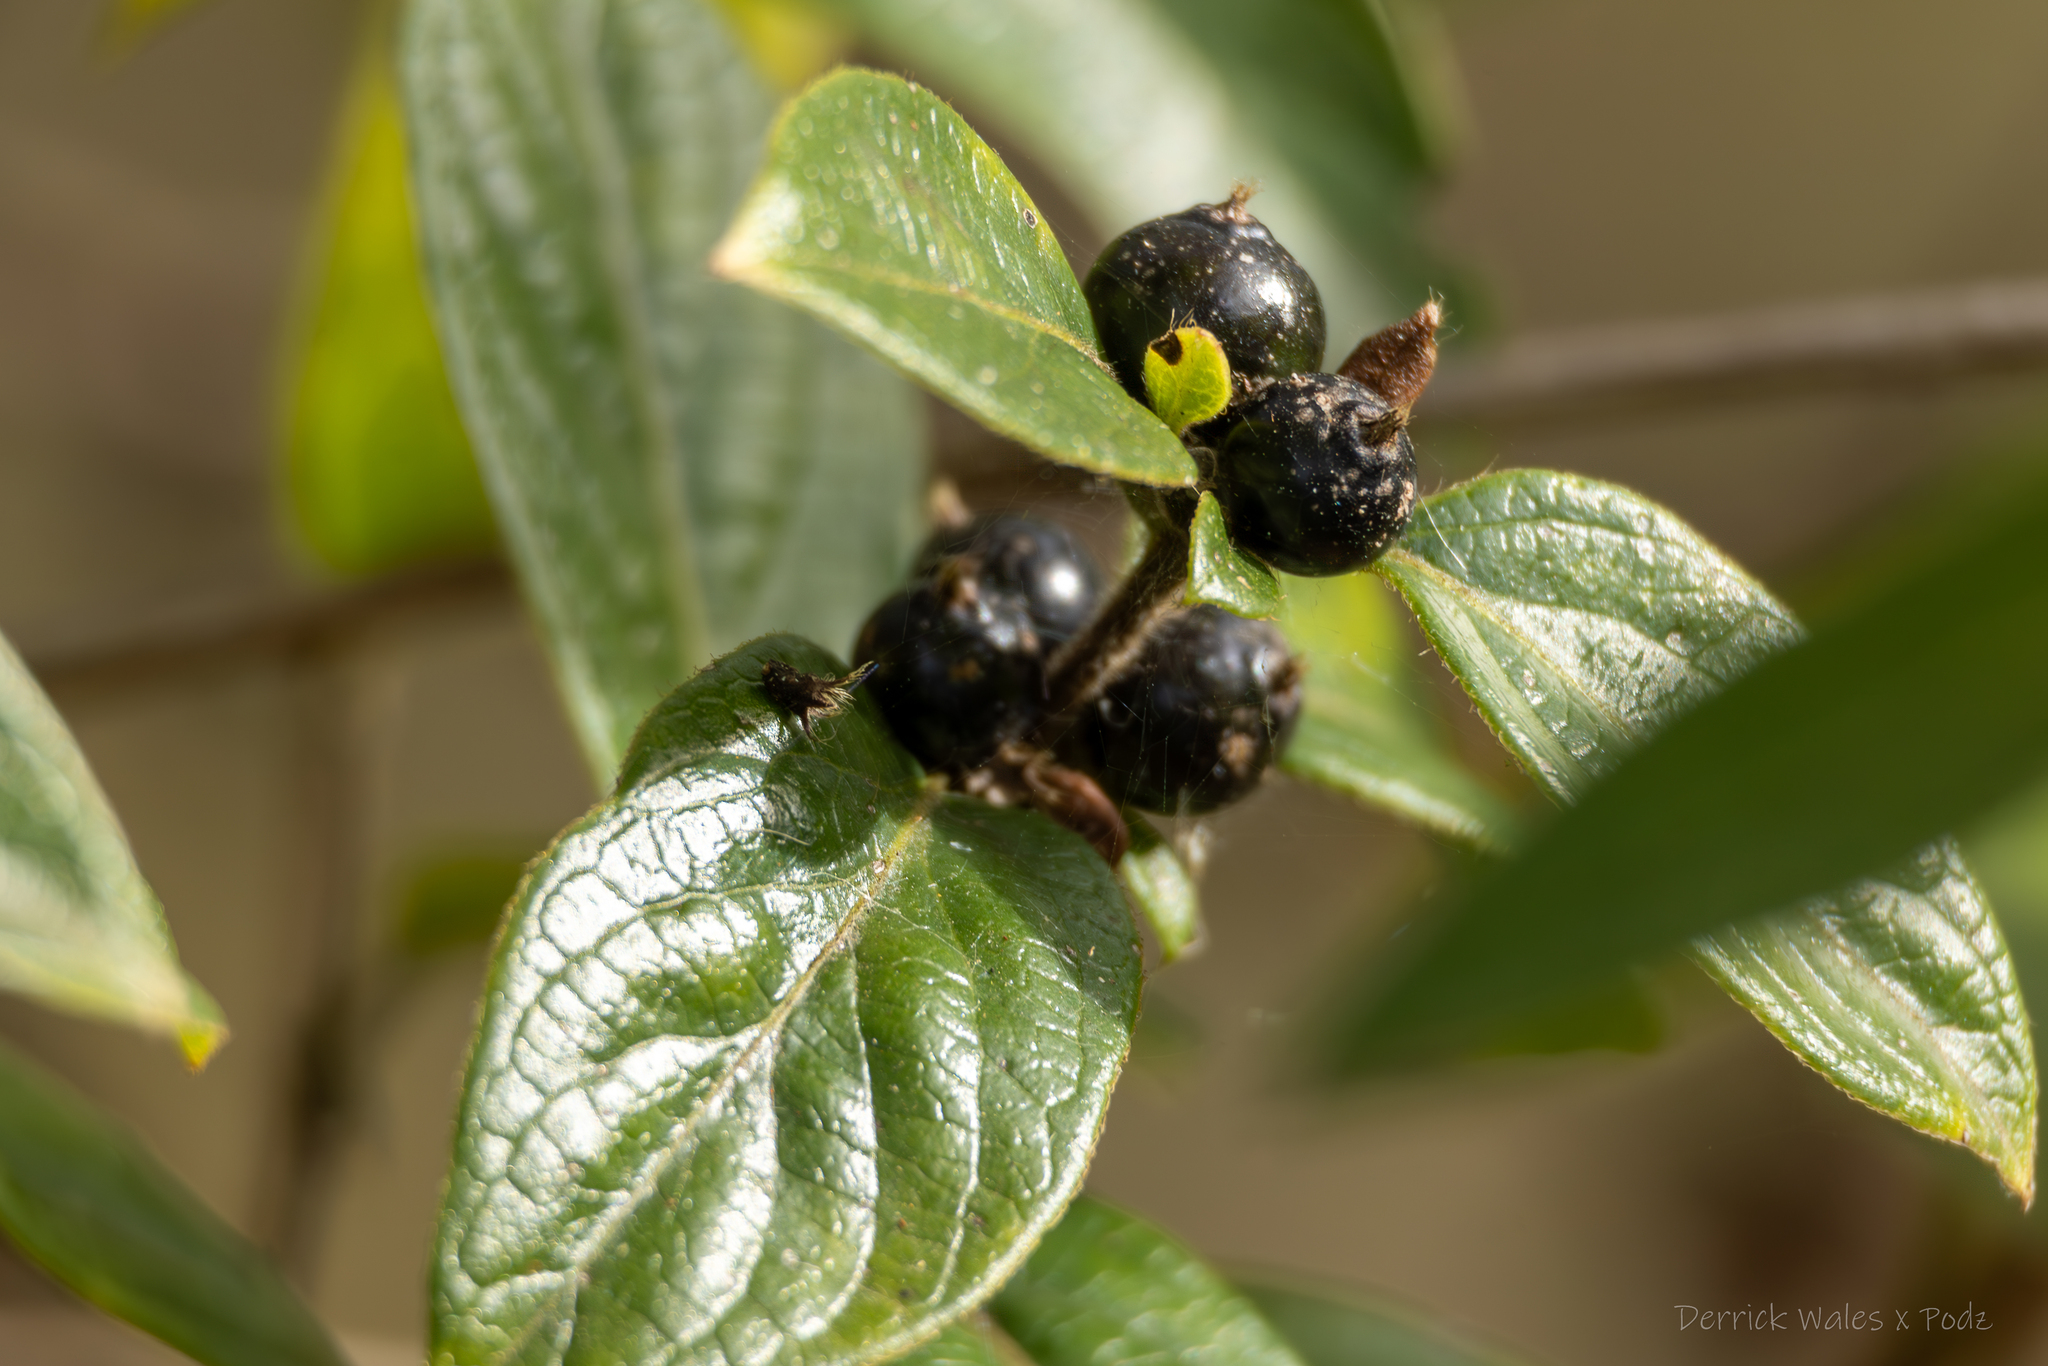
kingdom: Plantae
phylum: Tracheophyta
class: Magnoliopsida
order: Dipsacales
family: Caprifoliaceae
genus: Lonicera
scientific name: Lonicera japonica
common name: Japanese honeysuckle
